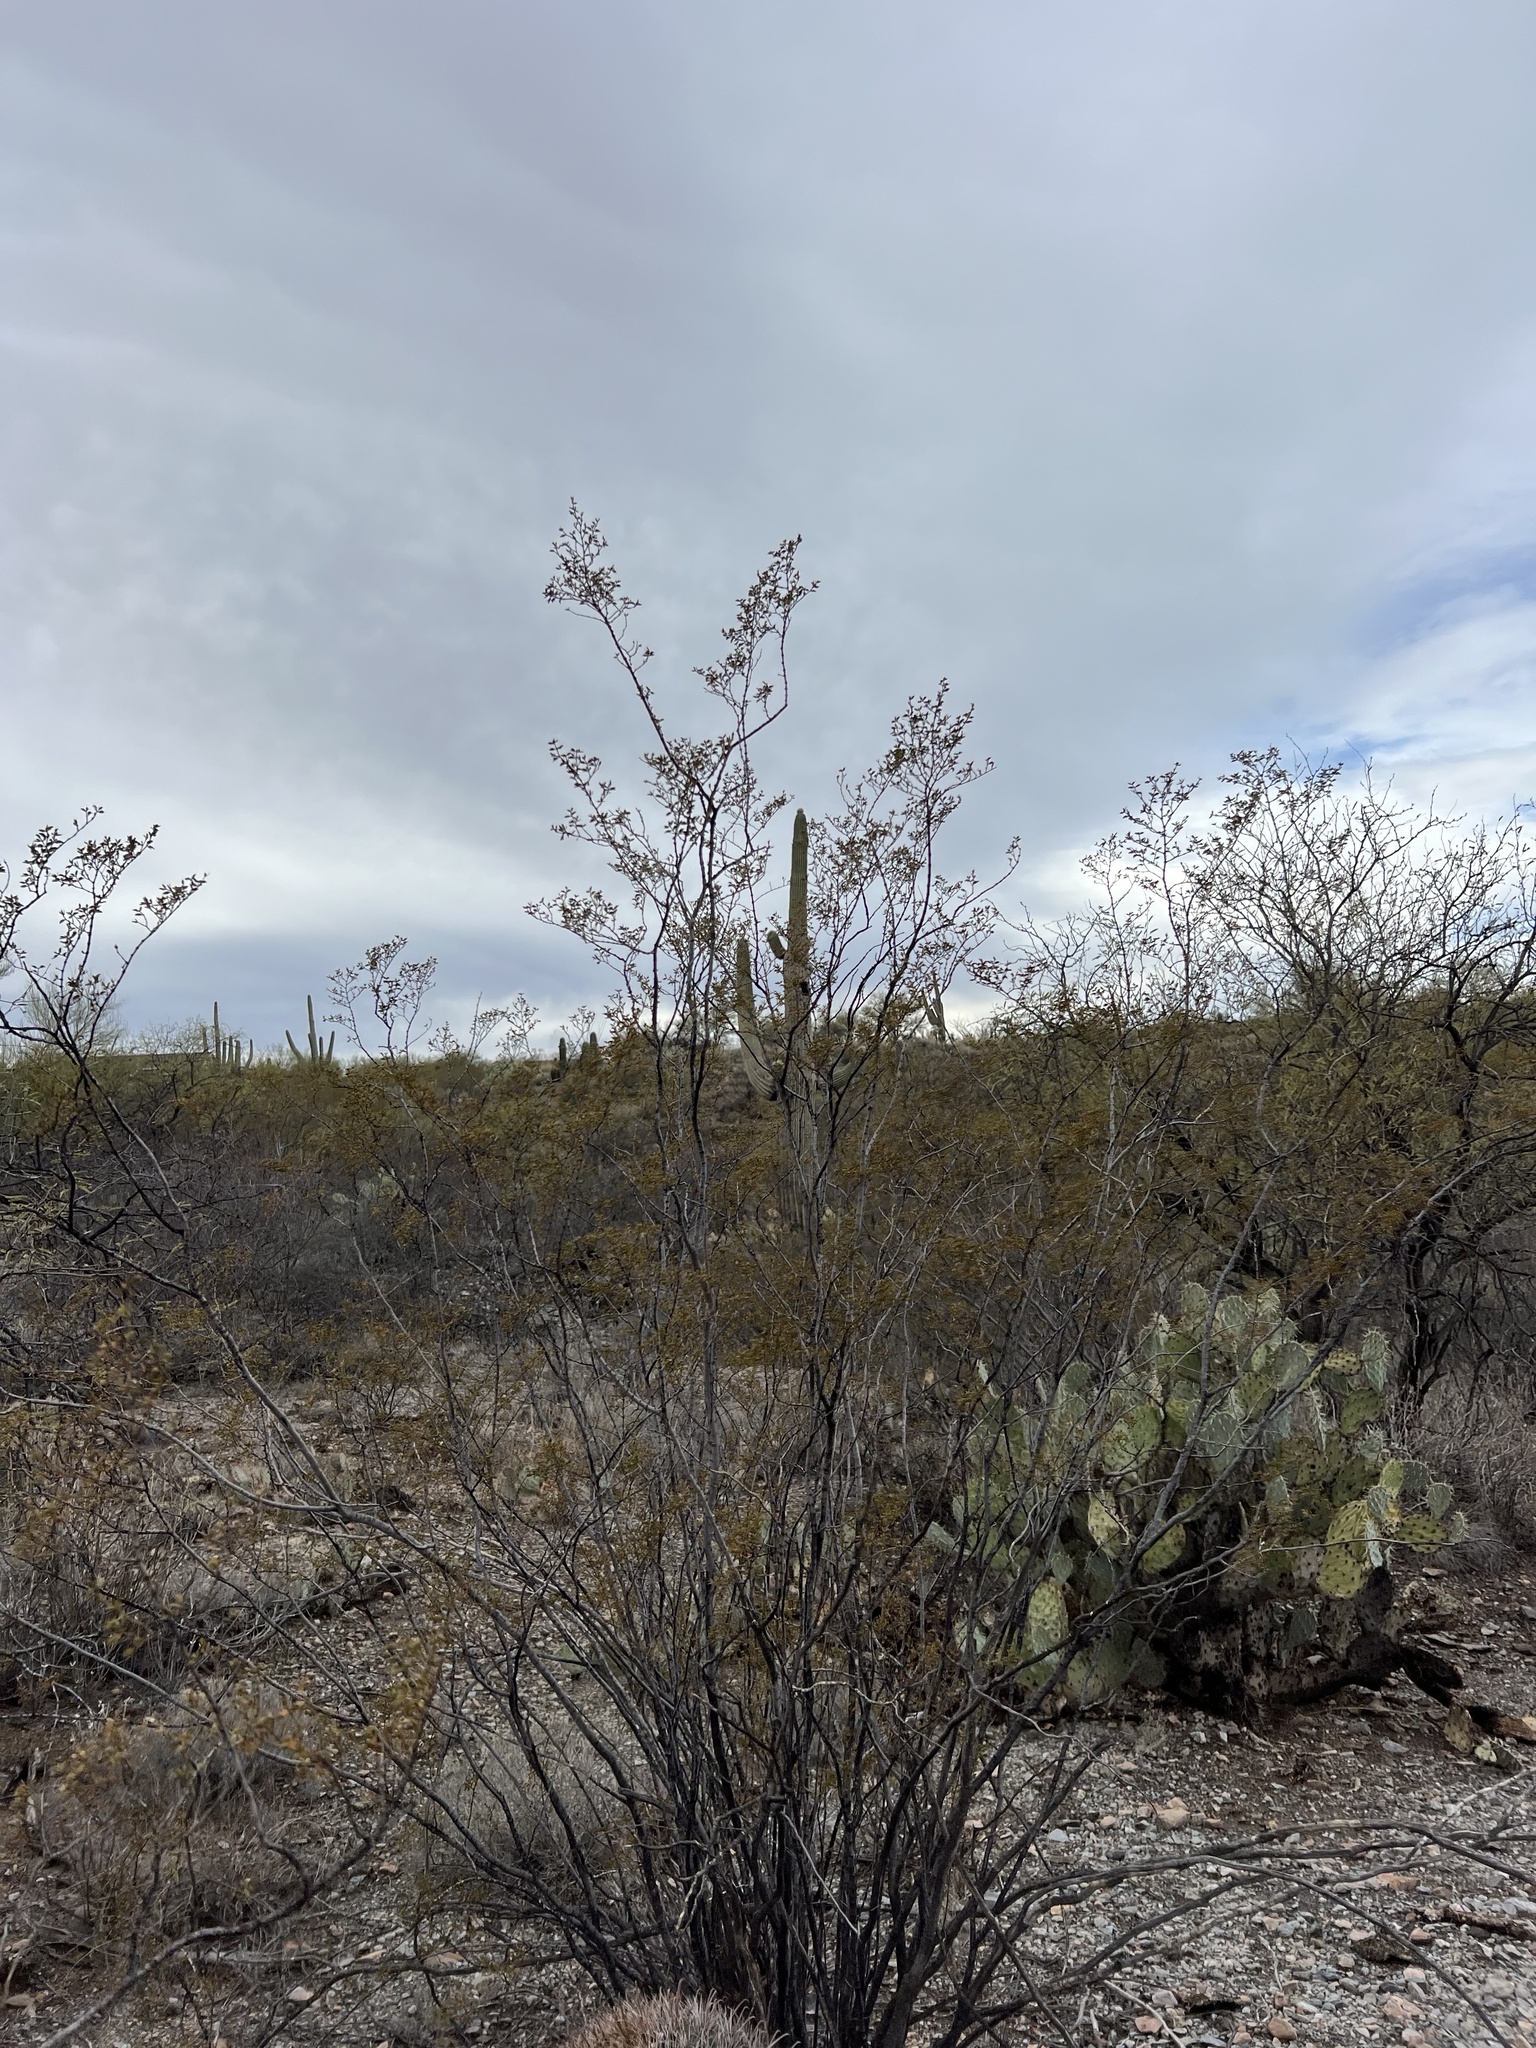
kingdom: Plantae
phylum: Tracheophyta
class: Magnoliopsida
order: Zygophyllales
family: Zygophyllaceae
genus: Larrea
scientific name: Larrea tridentata
